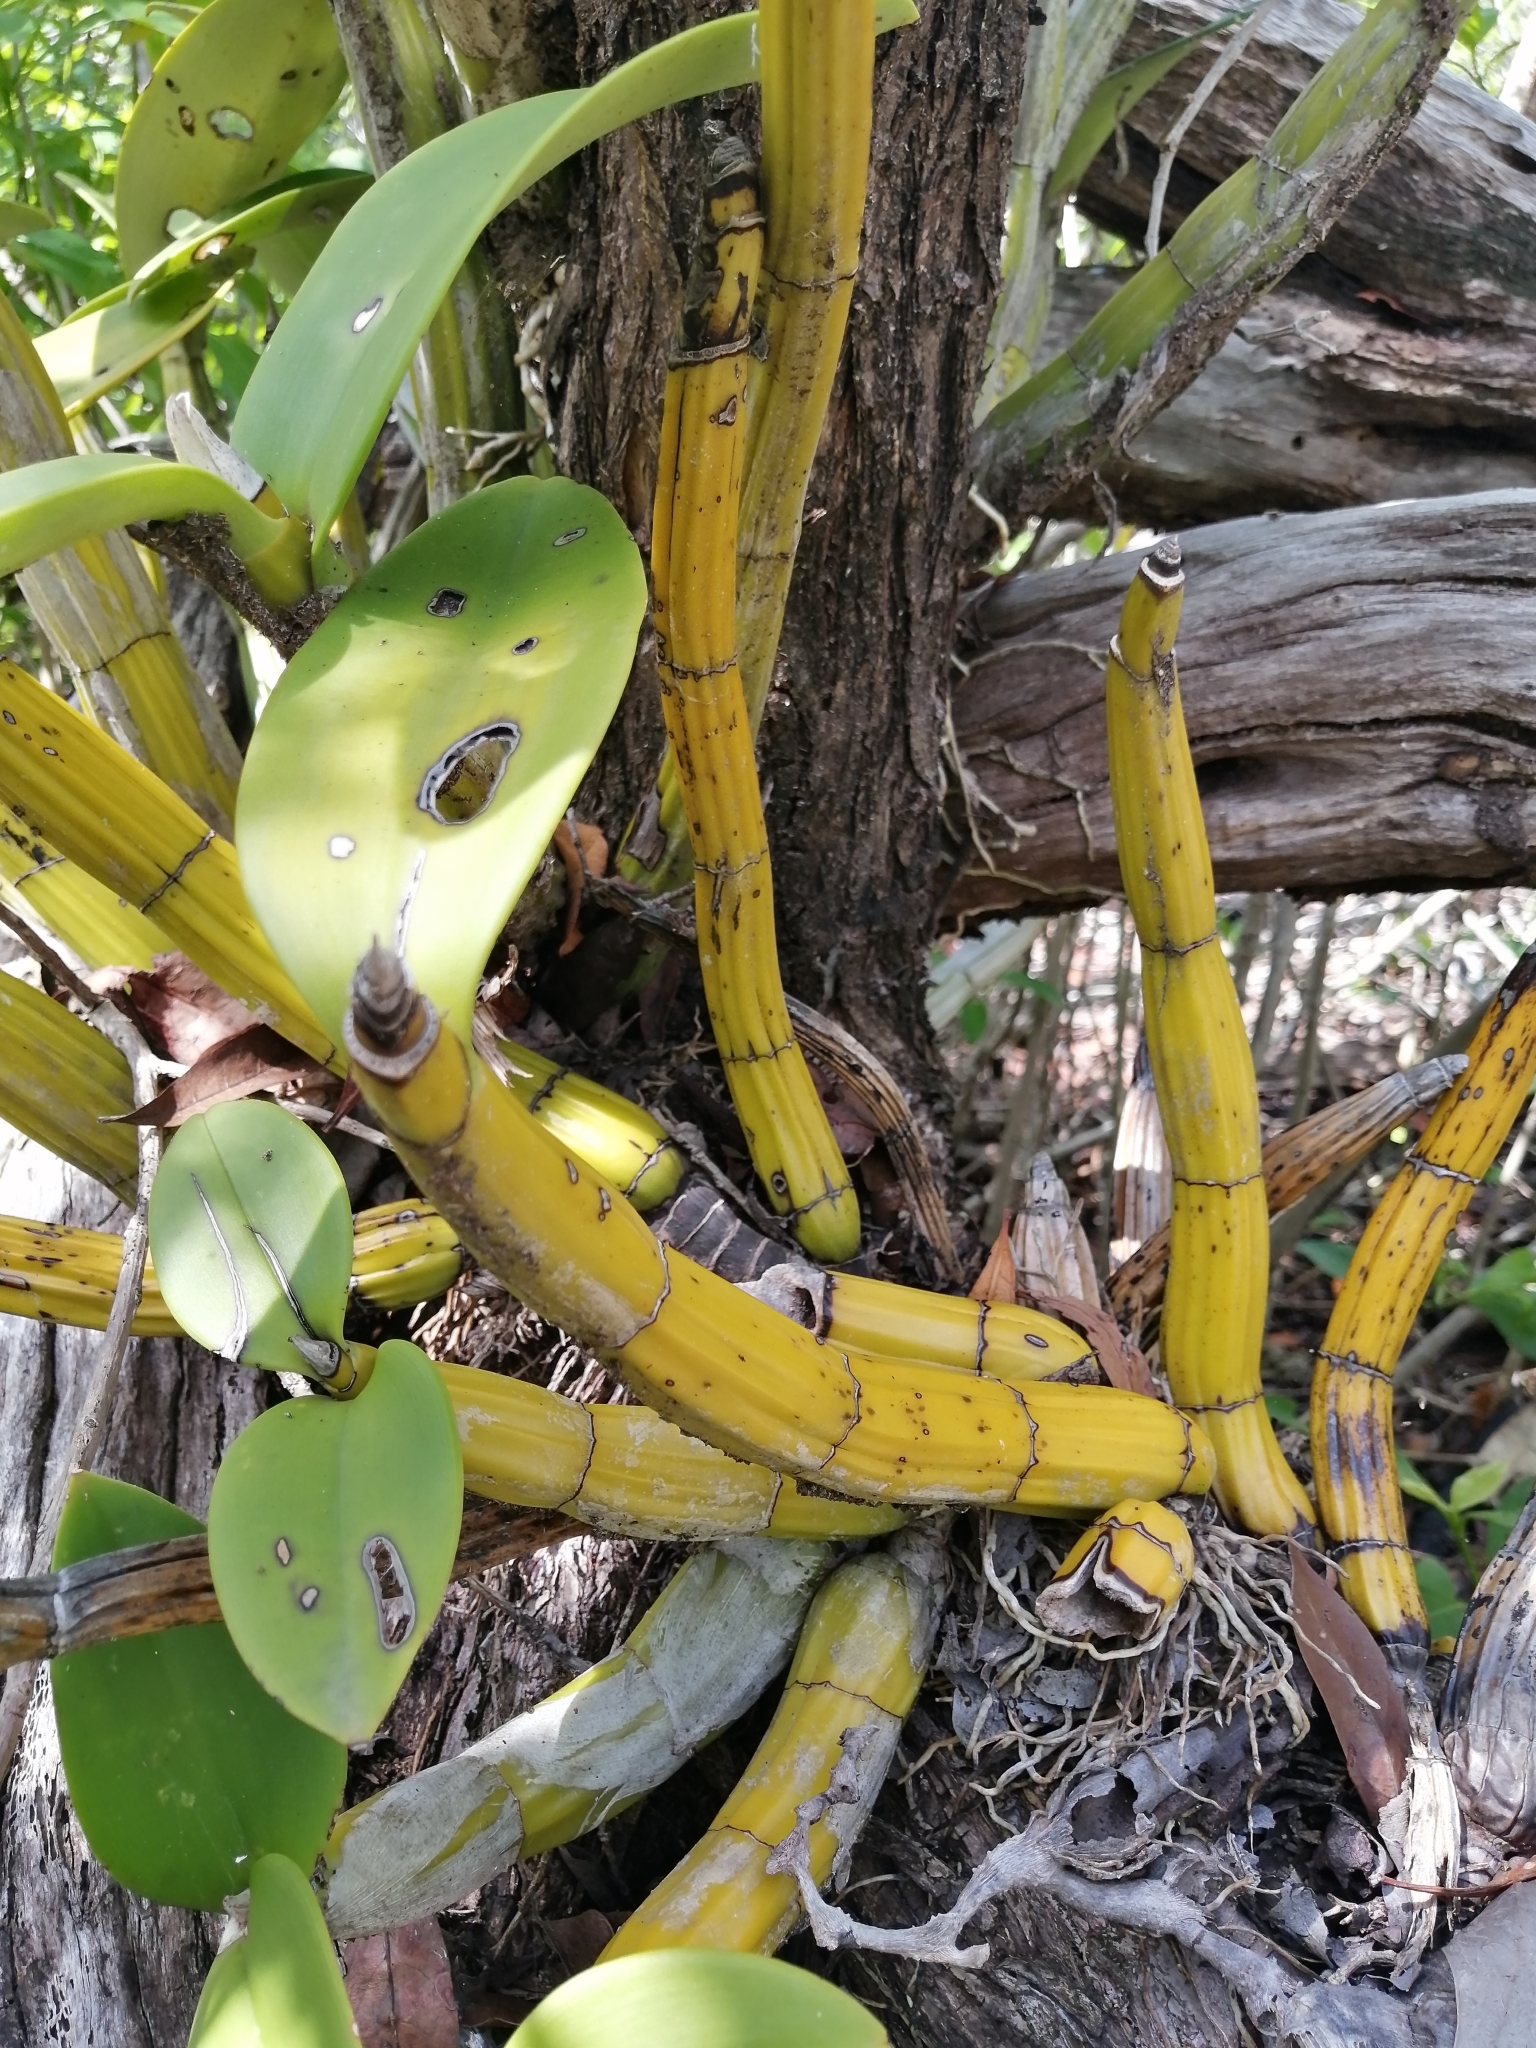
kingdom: Plantae
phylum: Tracheophyta
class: Liliopsida
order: Asparagales
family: Orchidaceae
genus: Myrmecophila
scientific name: Myrmecophila christinae
